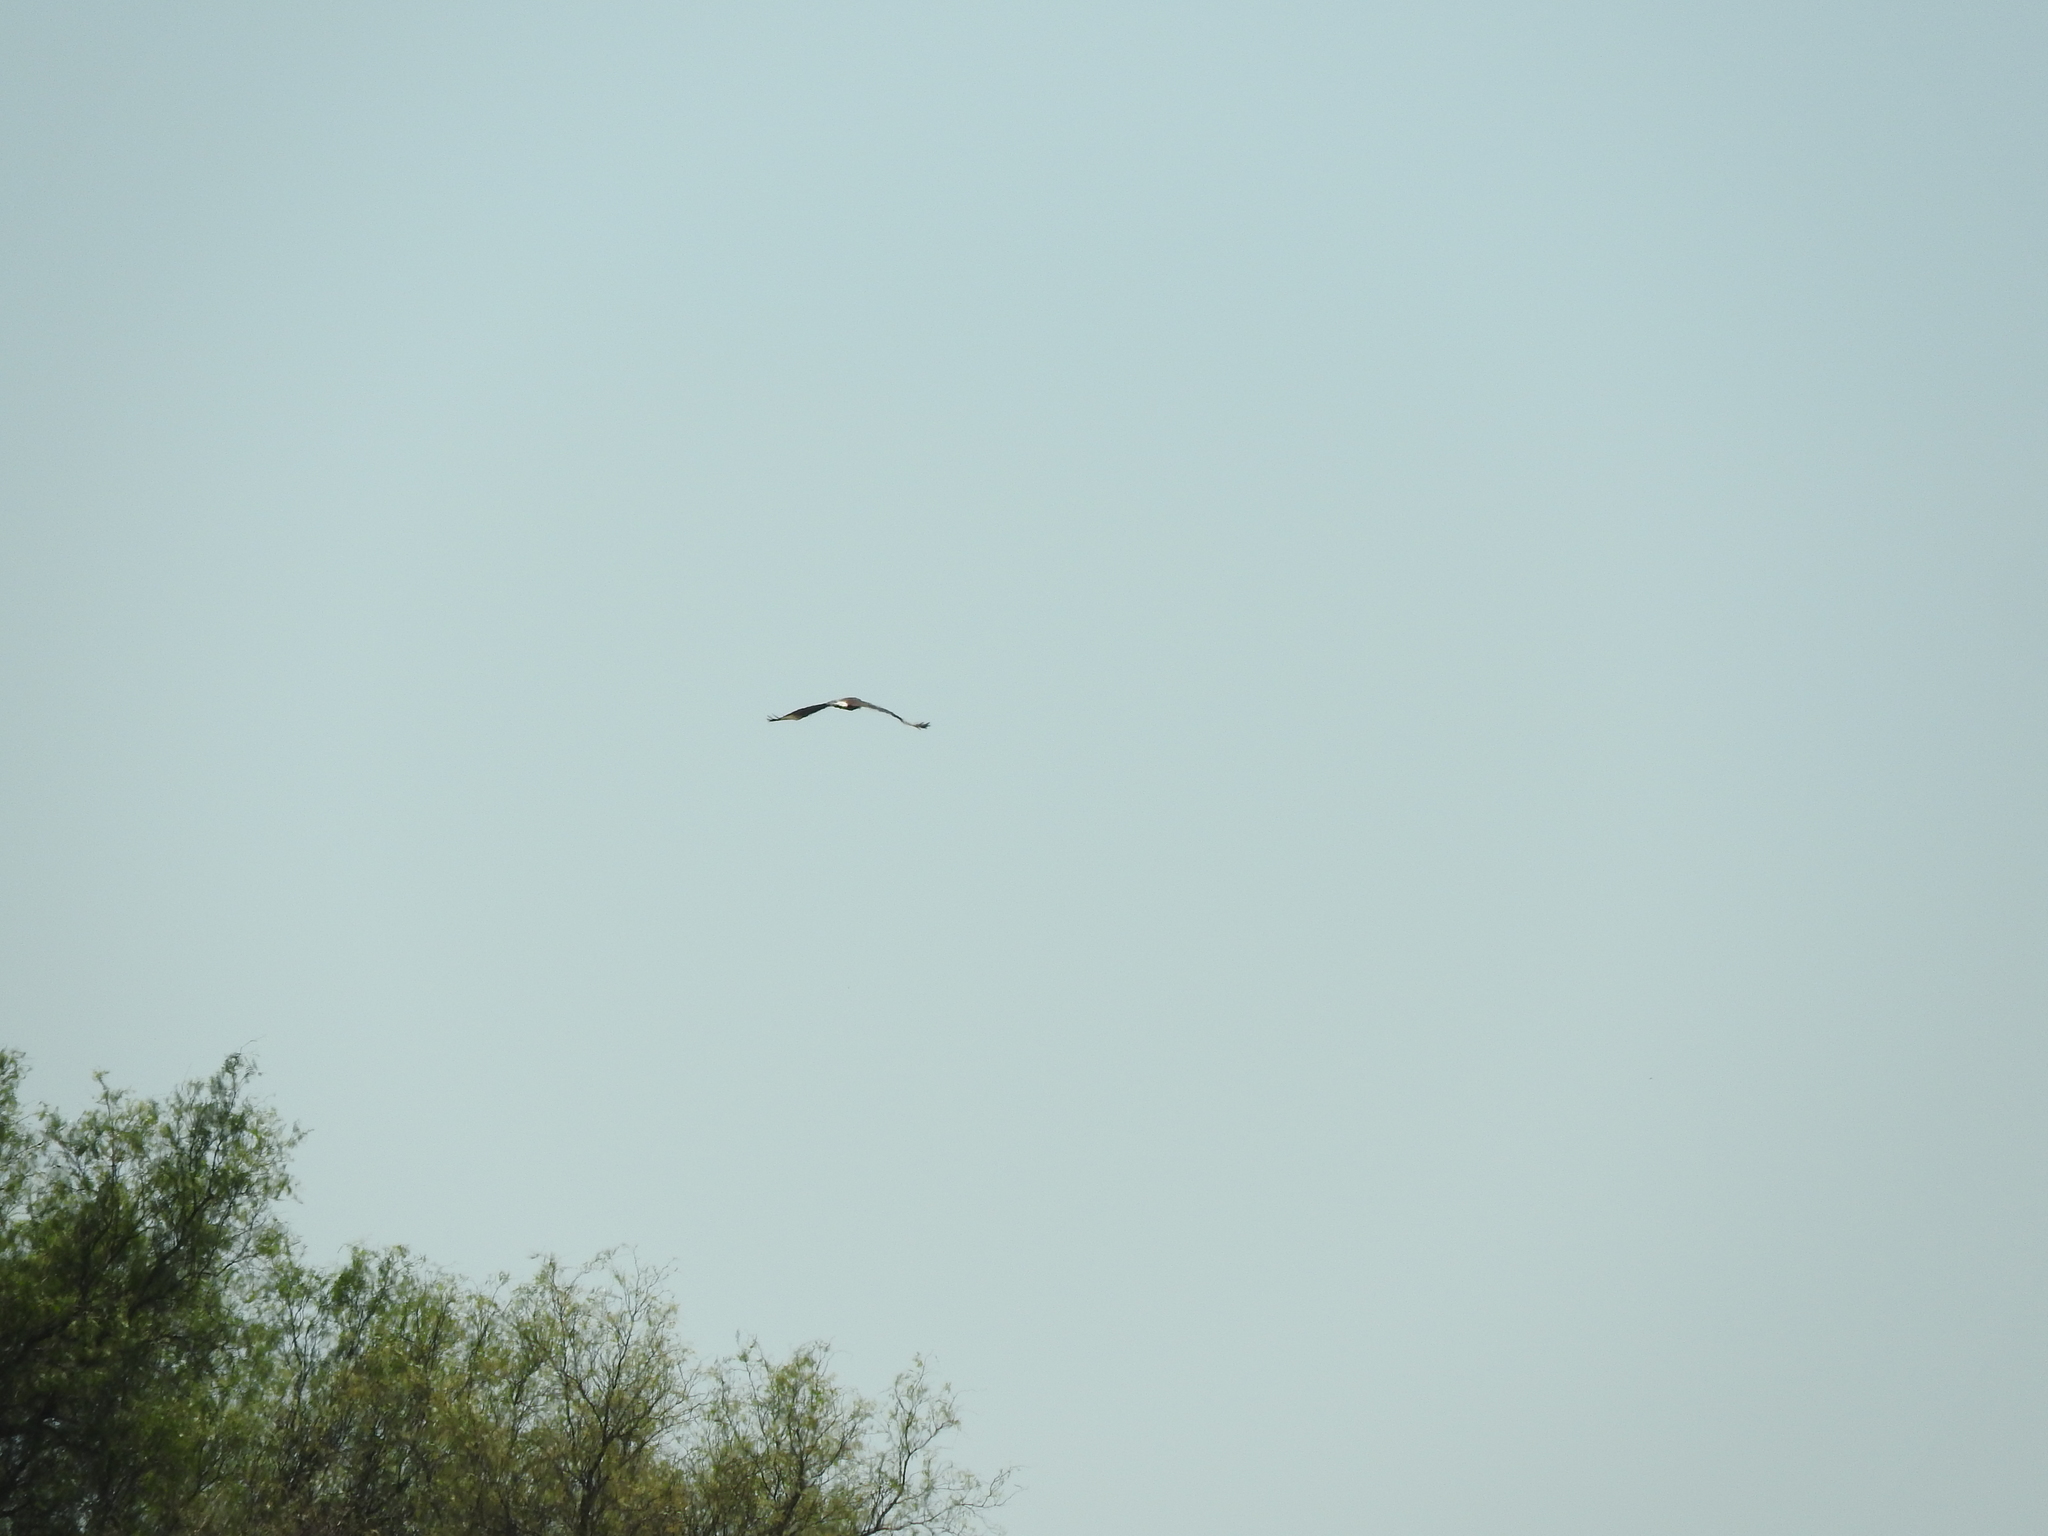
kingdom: Animalia
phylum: Chordata
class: Aves
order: Falconiformes
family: Falconidae
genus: Caracara
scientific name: Caracara plancus
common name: Southern caracara
